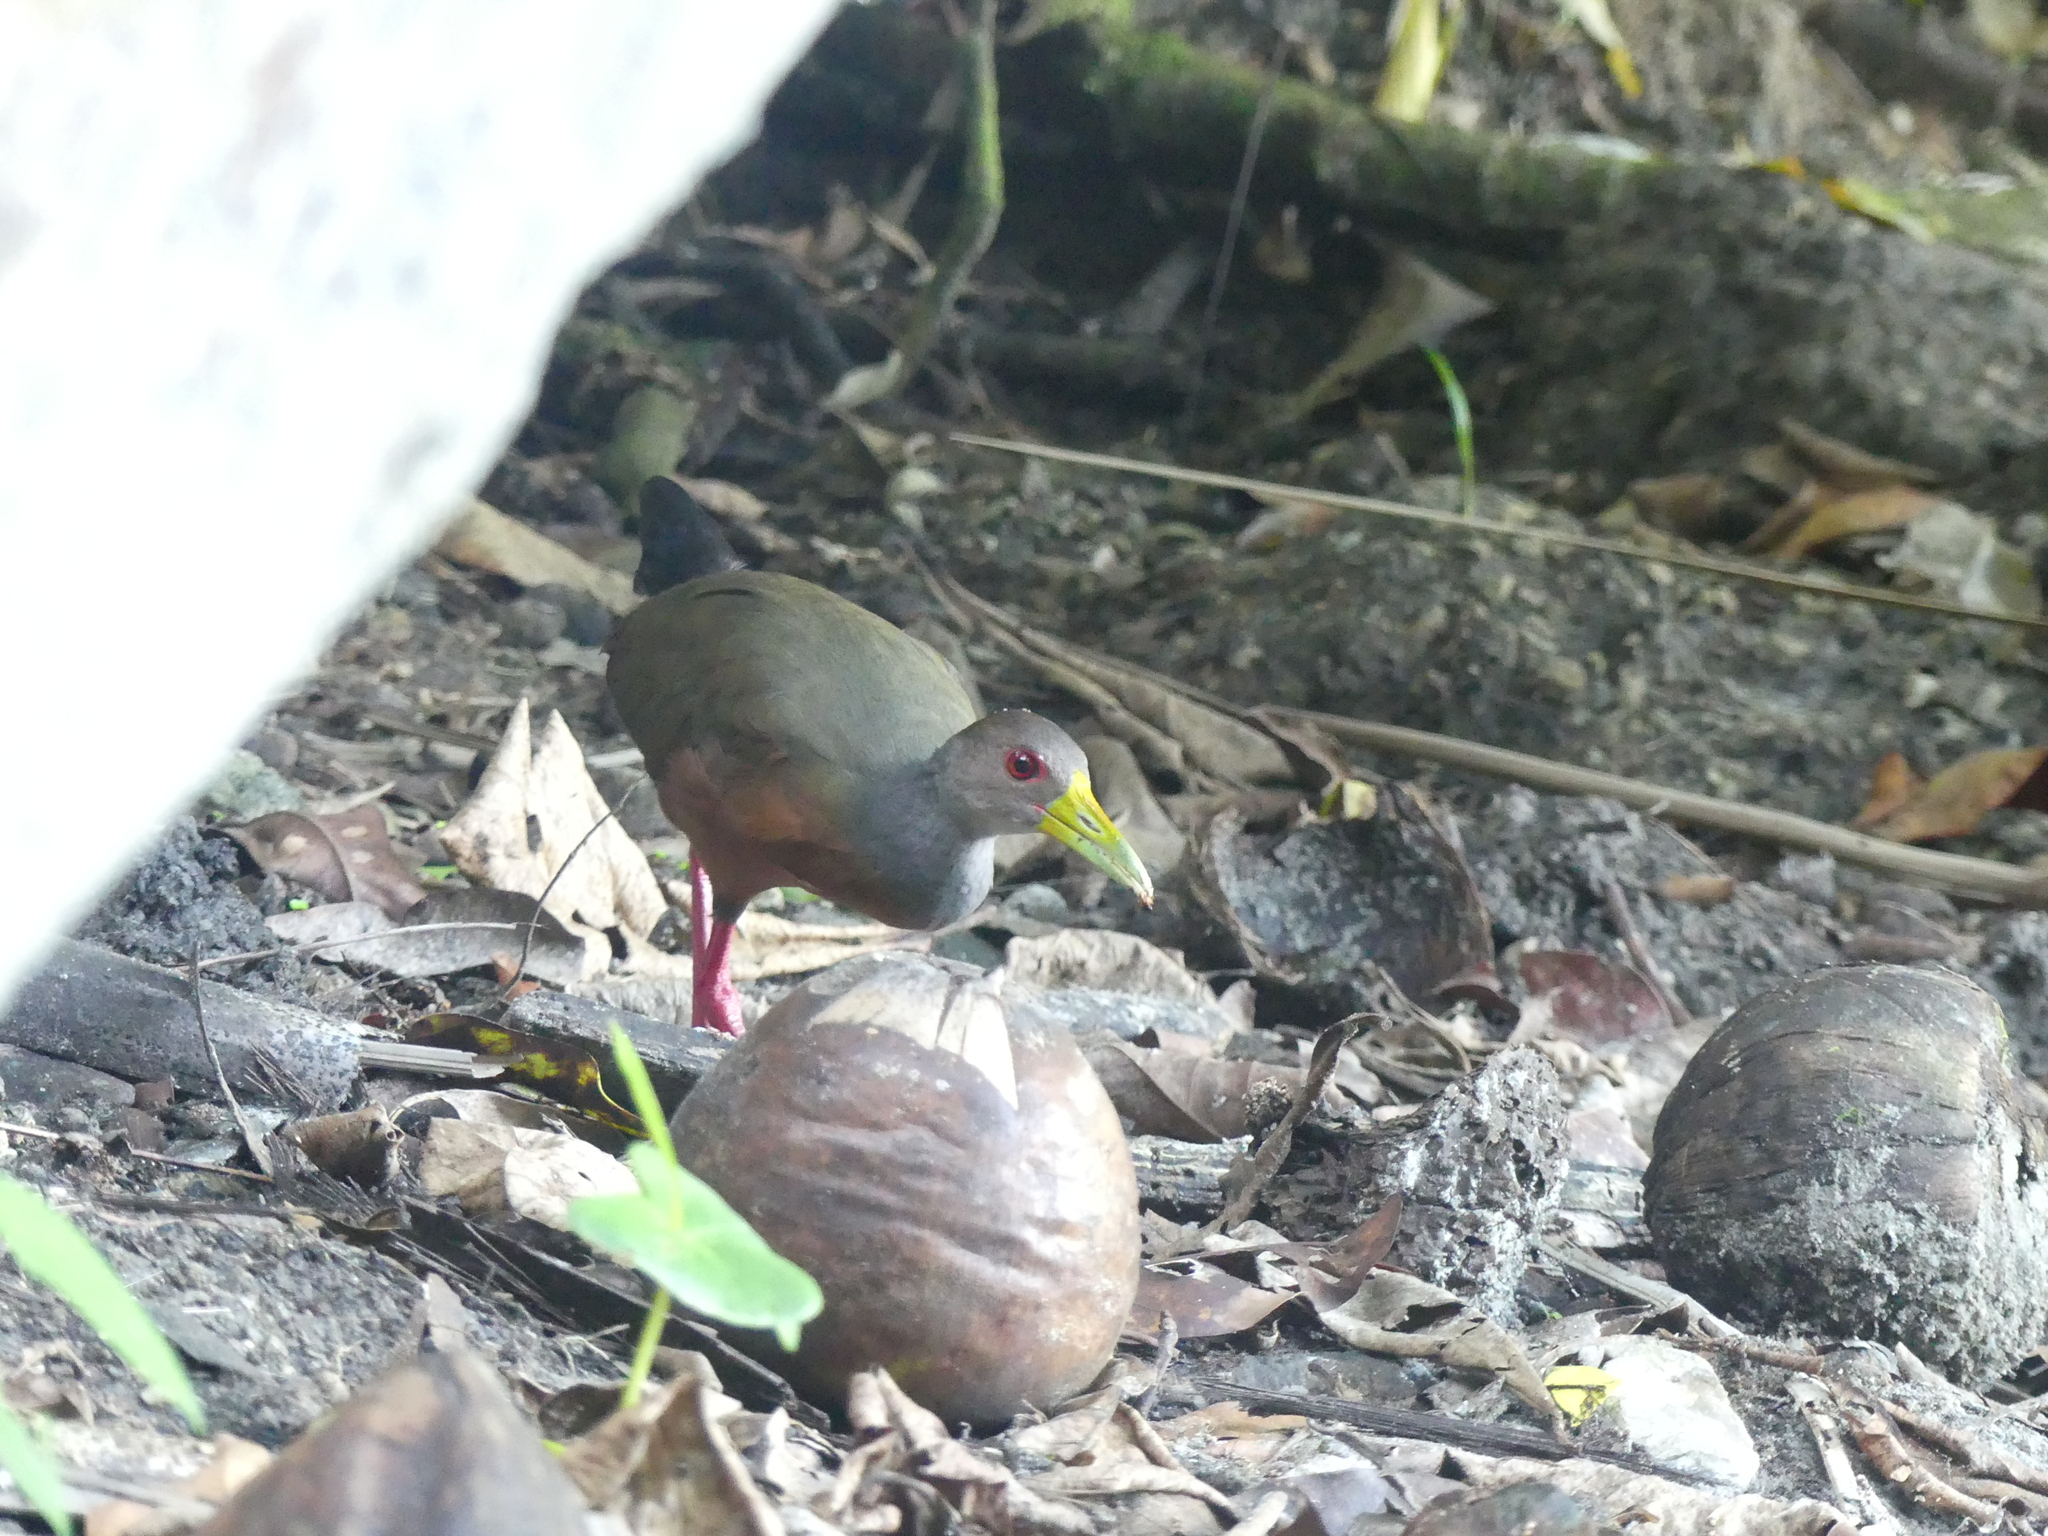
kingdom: Animalia
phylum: Chordata
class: Aves
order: Gruiformes
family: Rallidae
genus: Aramides
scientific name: Aramides cajanea
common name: Gray-necked wood-rail
